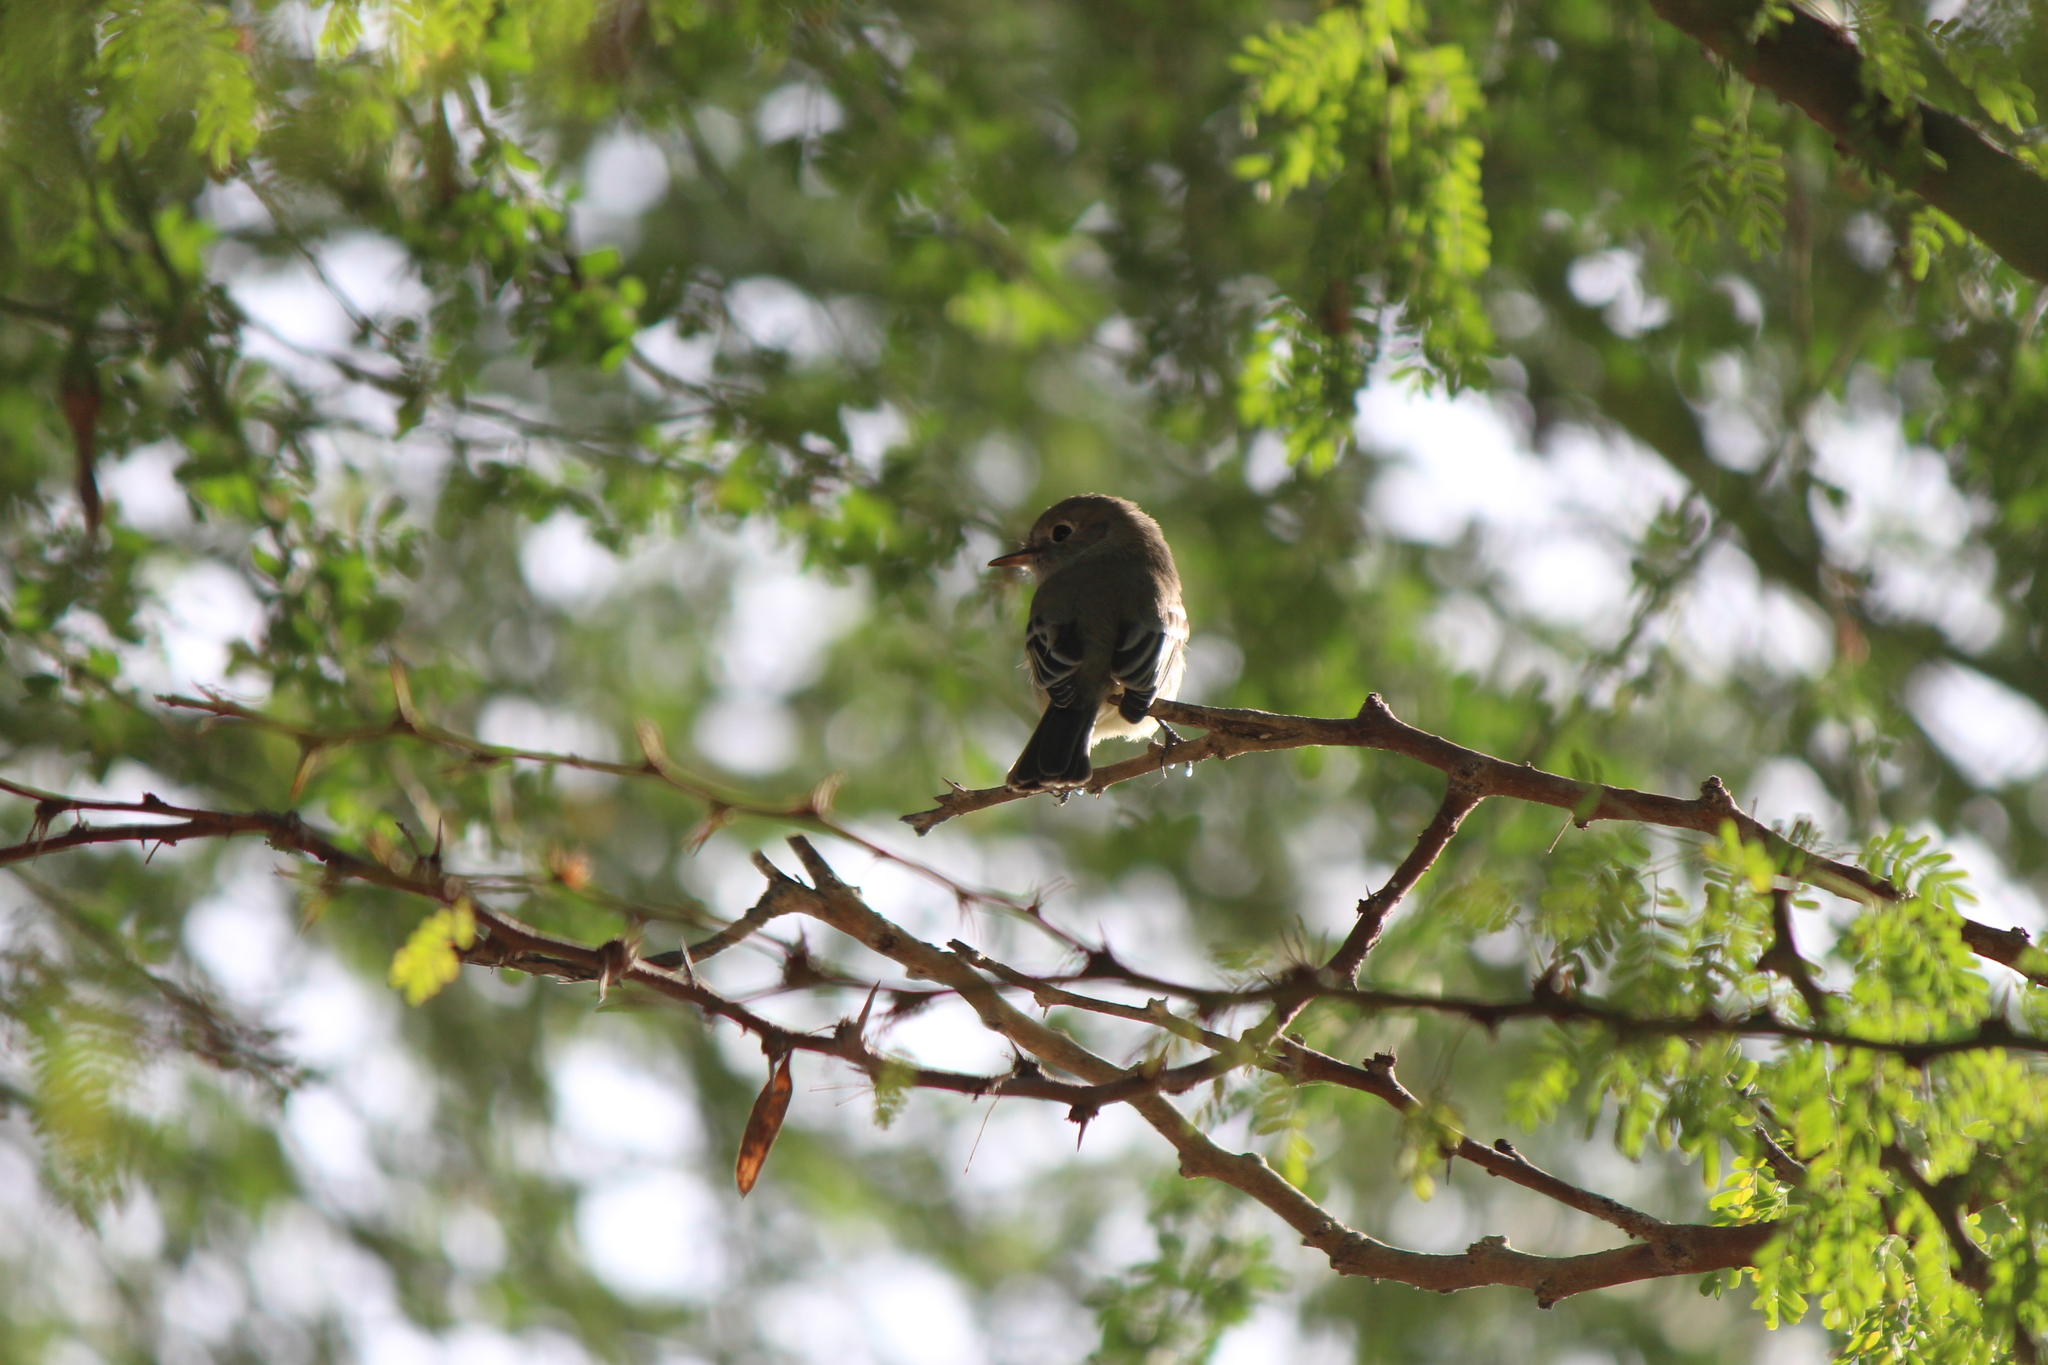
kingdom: Animalia
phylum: Chordata
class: Aves
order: Passeriformes
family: Tyrannidae
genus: Empidonax
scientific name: Empidonax wrightii
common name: Gray flycatcher
